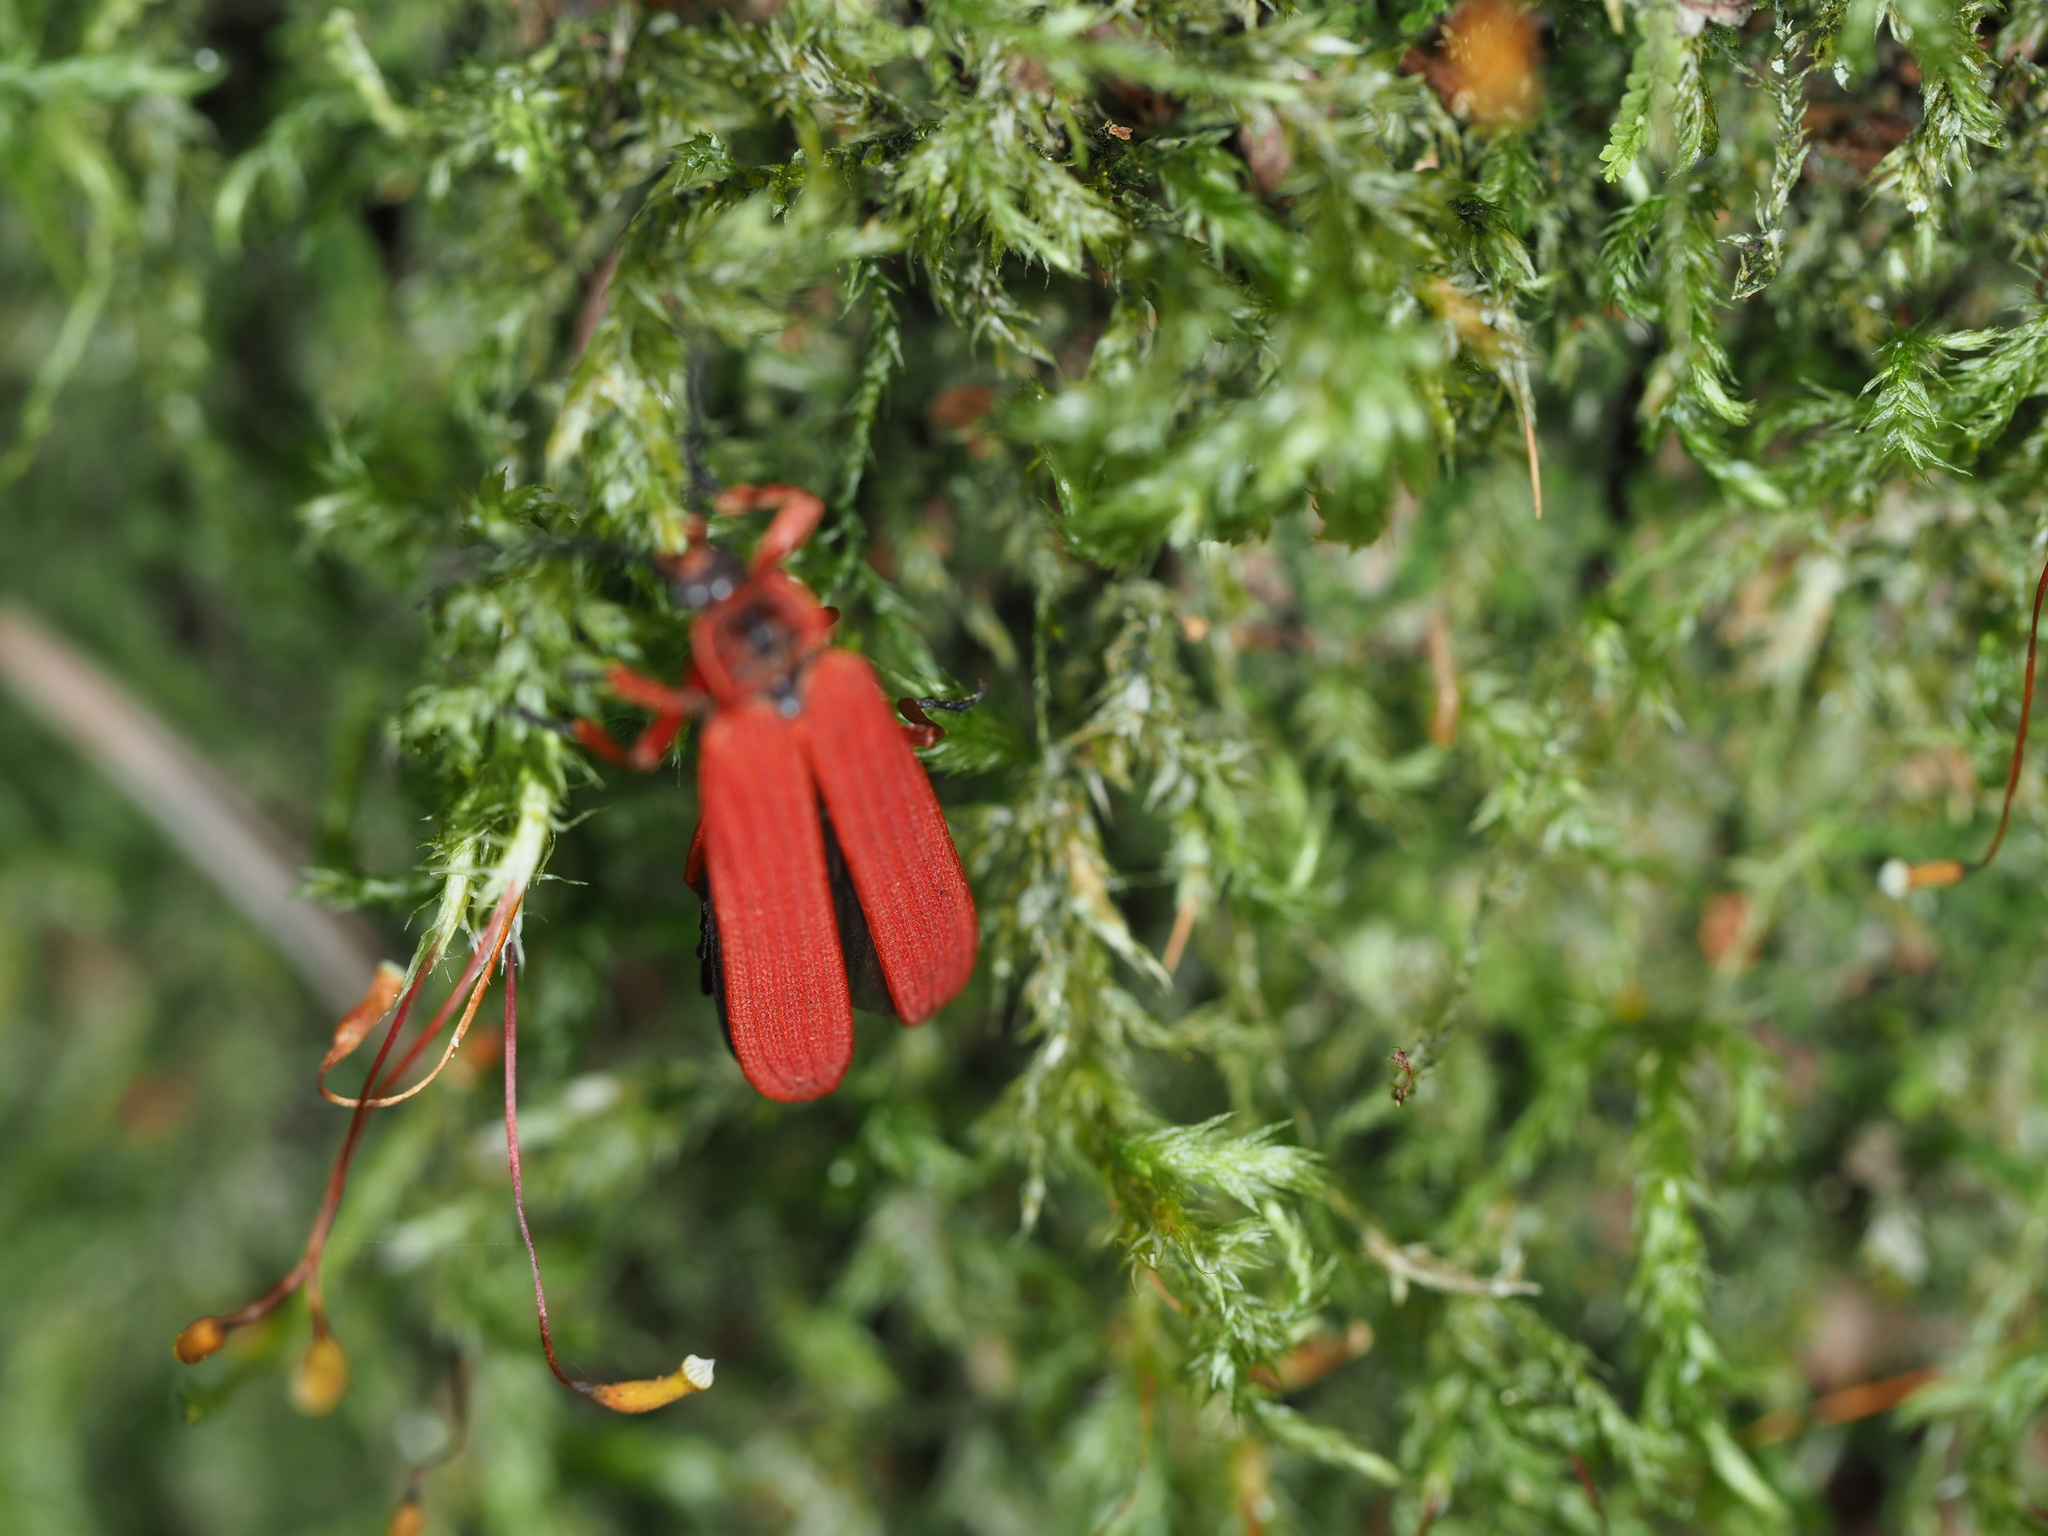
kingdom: Animalia
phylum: Arthropoda
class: Insecta
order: Coleoptera
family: Lycidae
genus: Dictyoptera
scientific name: Dictyoptera simplicipes
